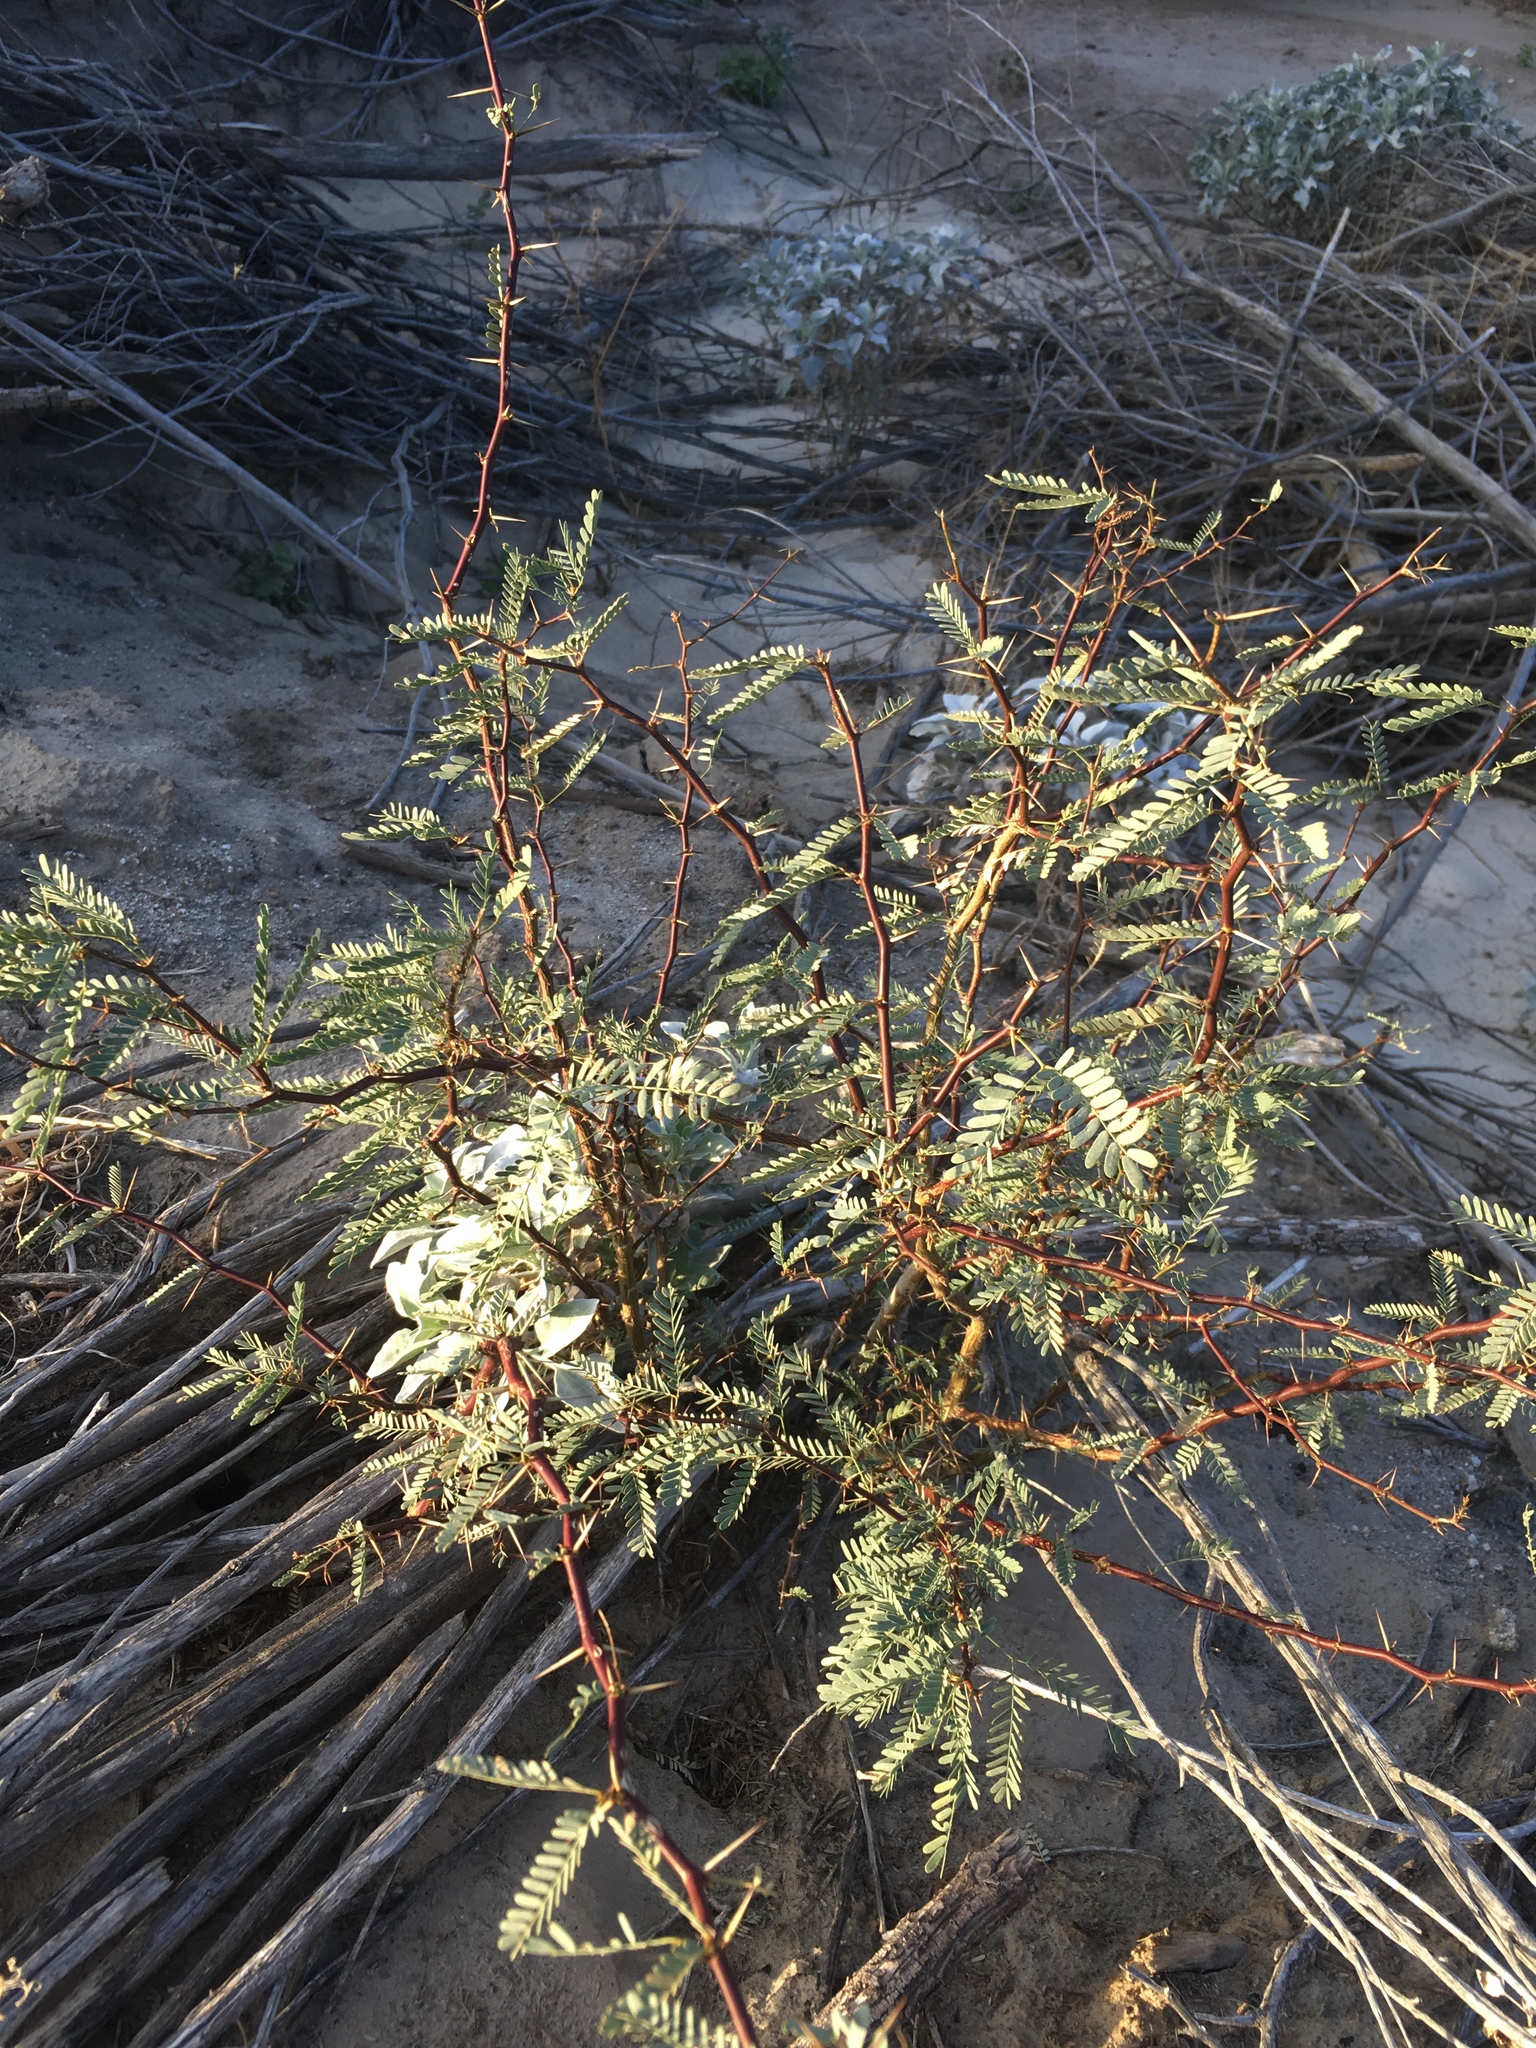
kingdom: Plantae
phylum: Tracheophyta
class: Magnoliopsida
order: Fabales
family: Fabaceae
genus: Prosopis
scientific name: Prosopis pubescens
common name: Screw-bean
